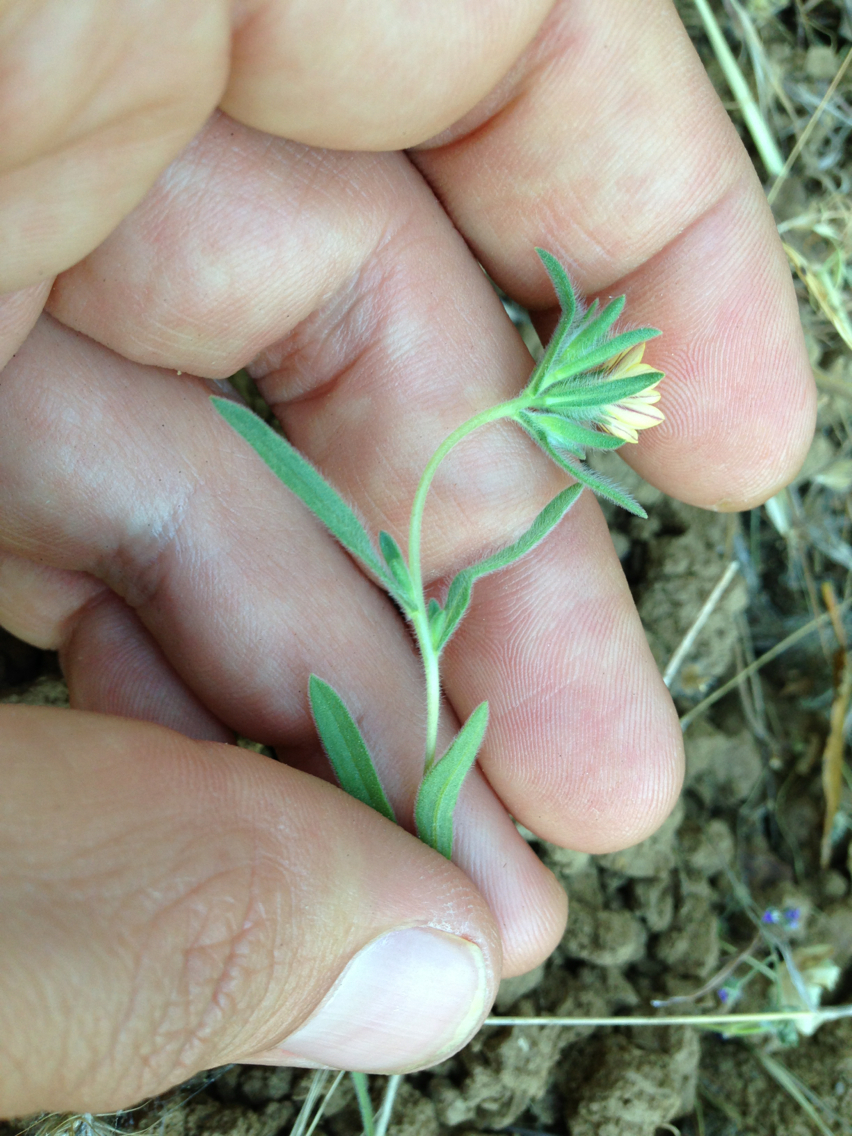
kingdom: Plantae
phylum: Tracheophyta
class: Magnoliopsida
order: Asterales
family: Asteraceae
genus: Lagophylla
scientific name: Lagophylla ramosissima
